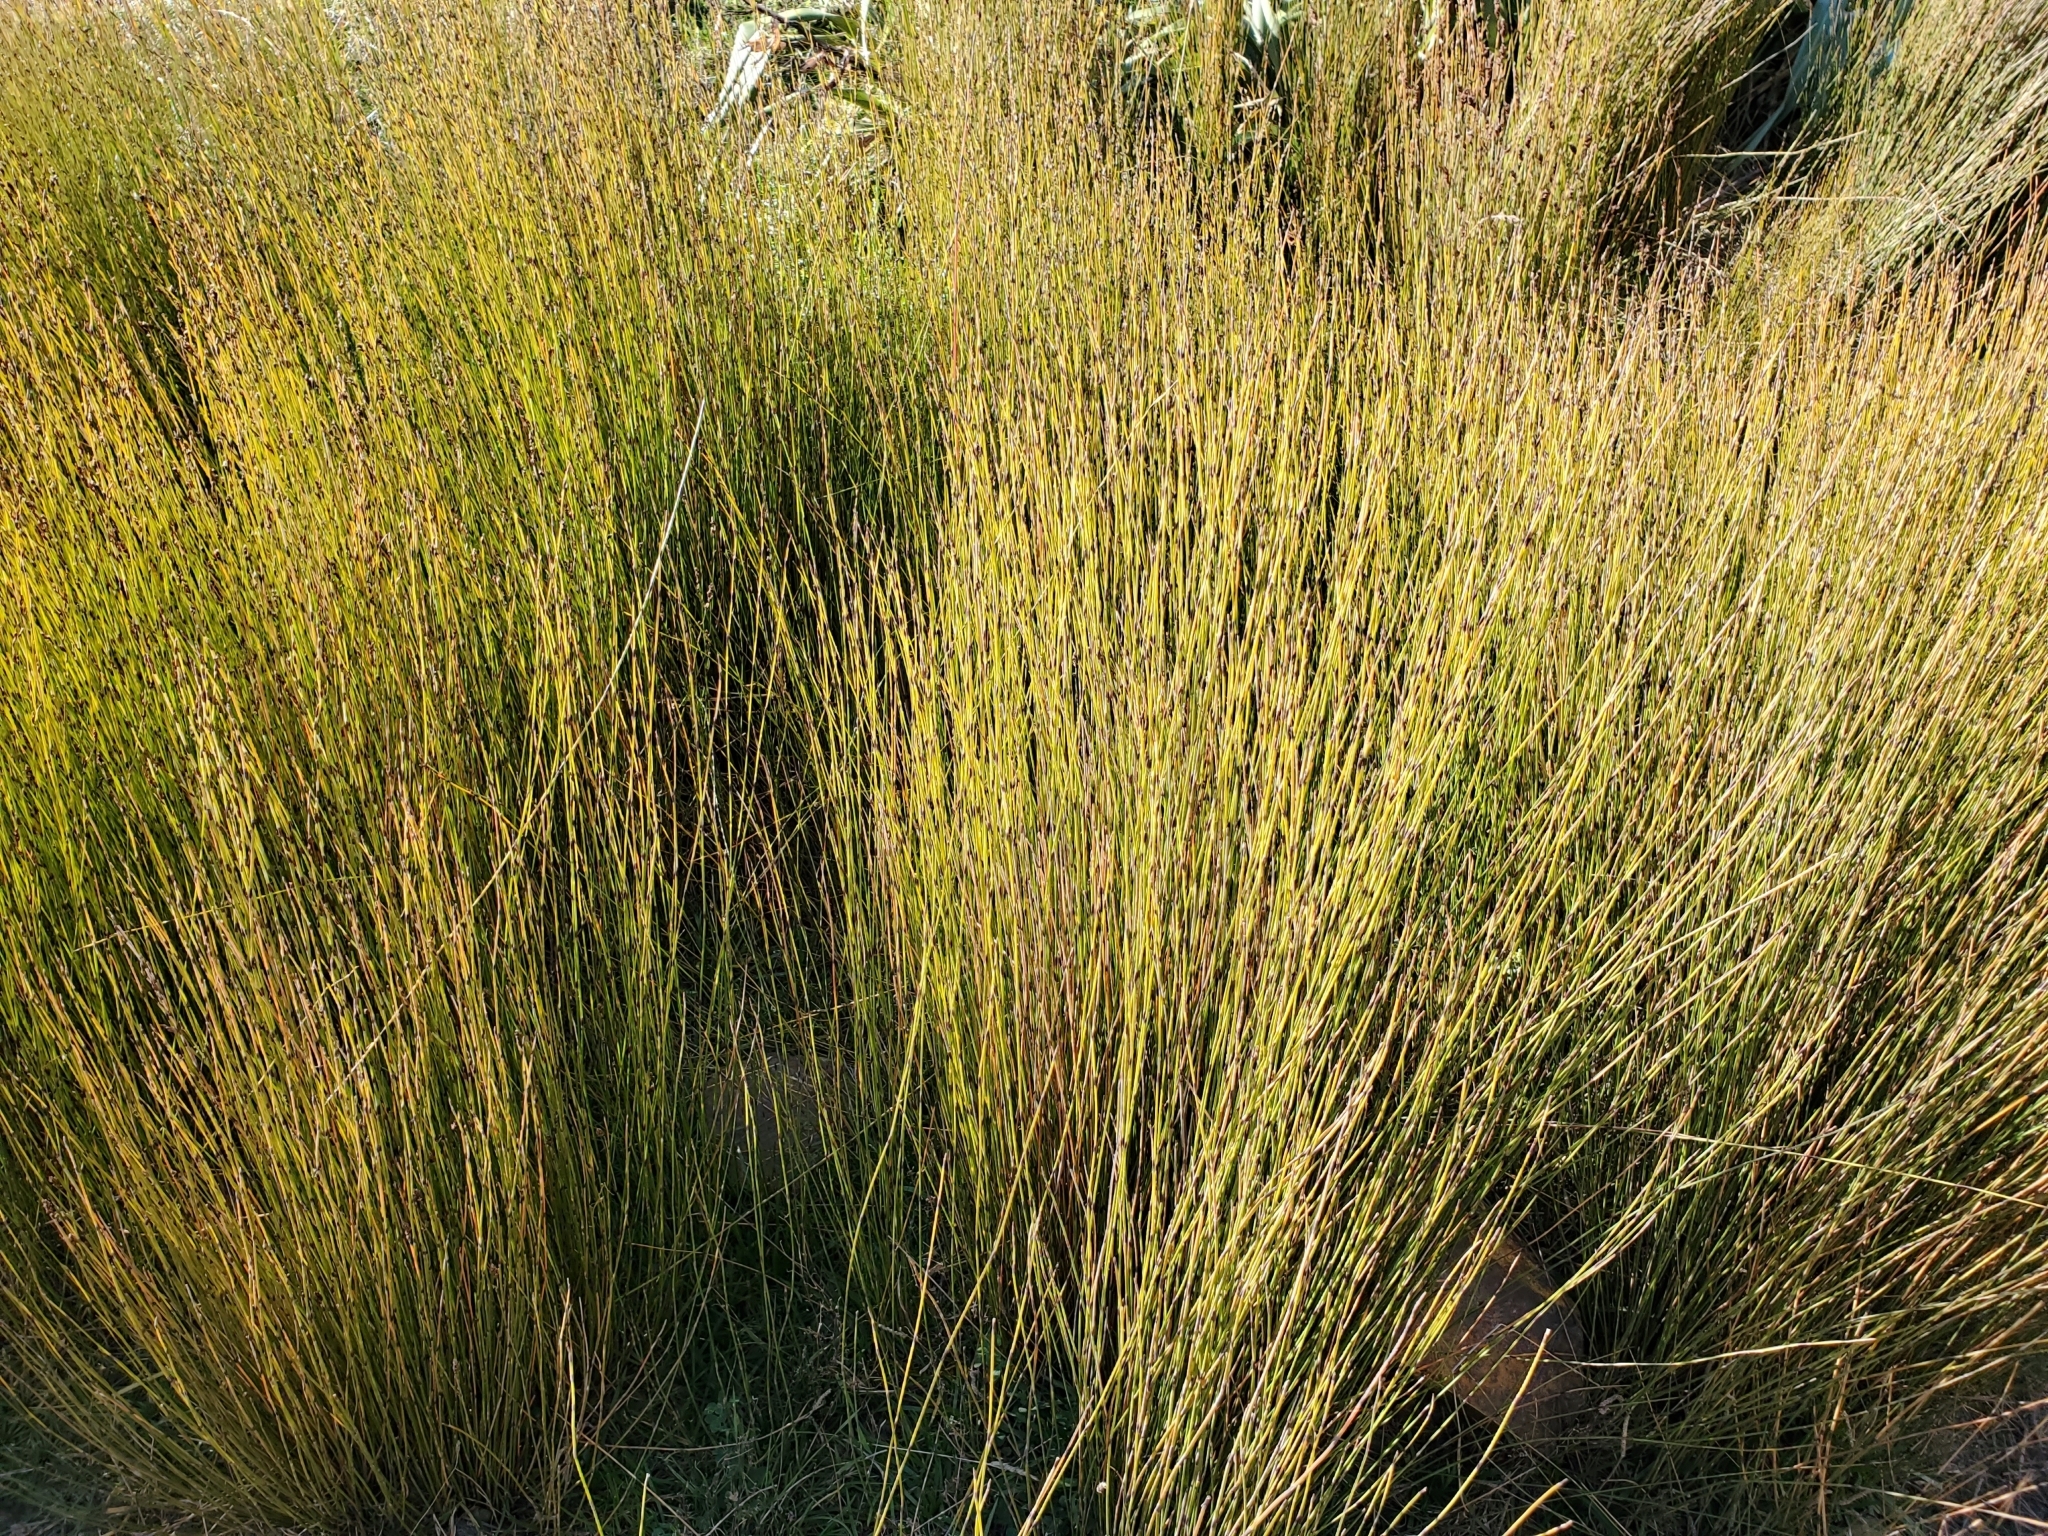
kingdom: Plantae
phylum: Tracheophyta
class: Liliopsida
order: Poales
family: Restionaceae
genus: Apodasmia
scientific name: Apodasmia similis
